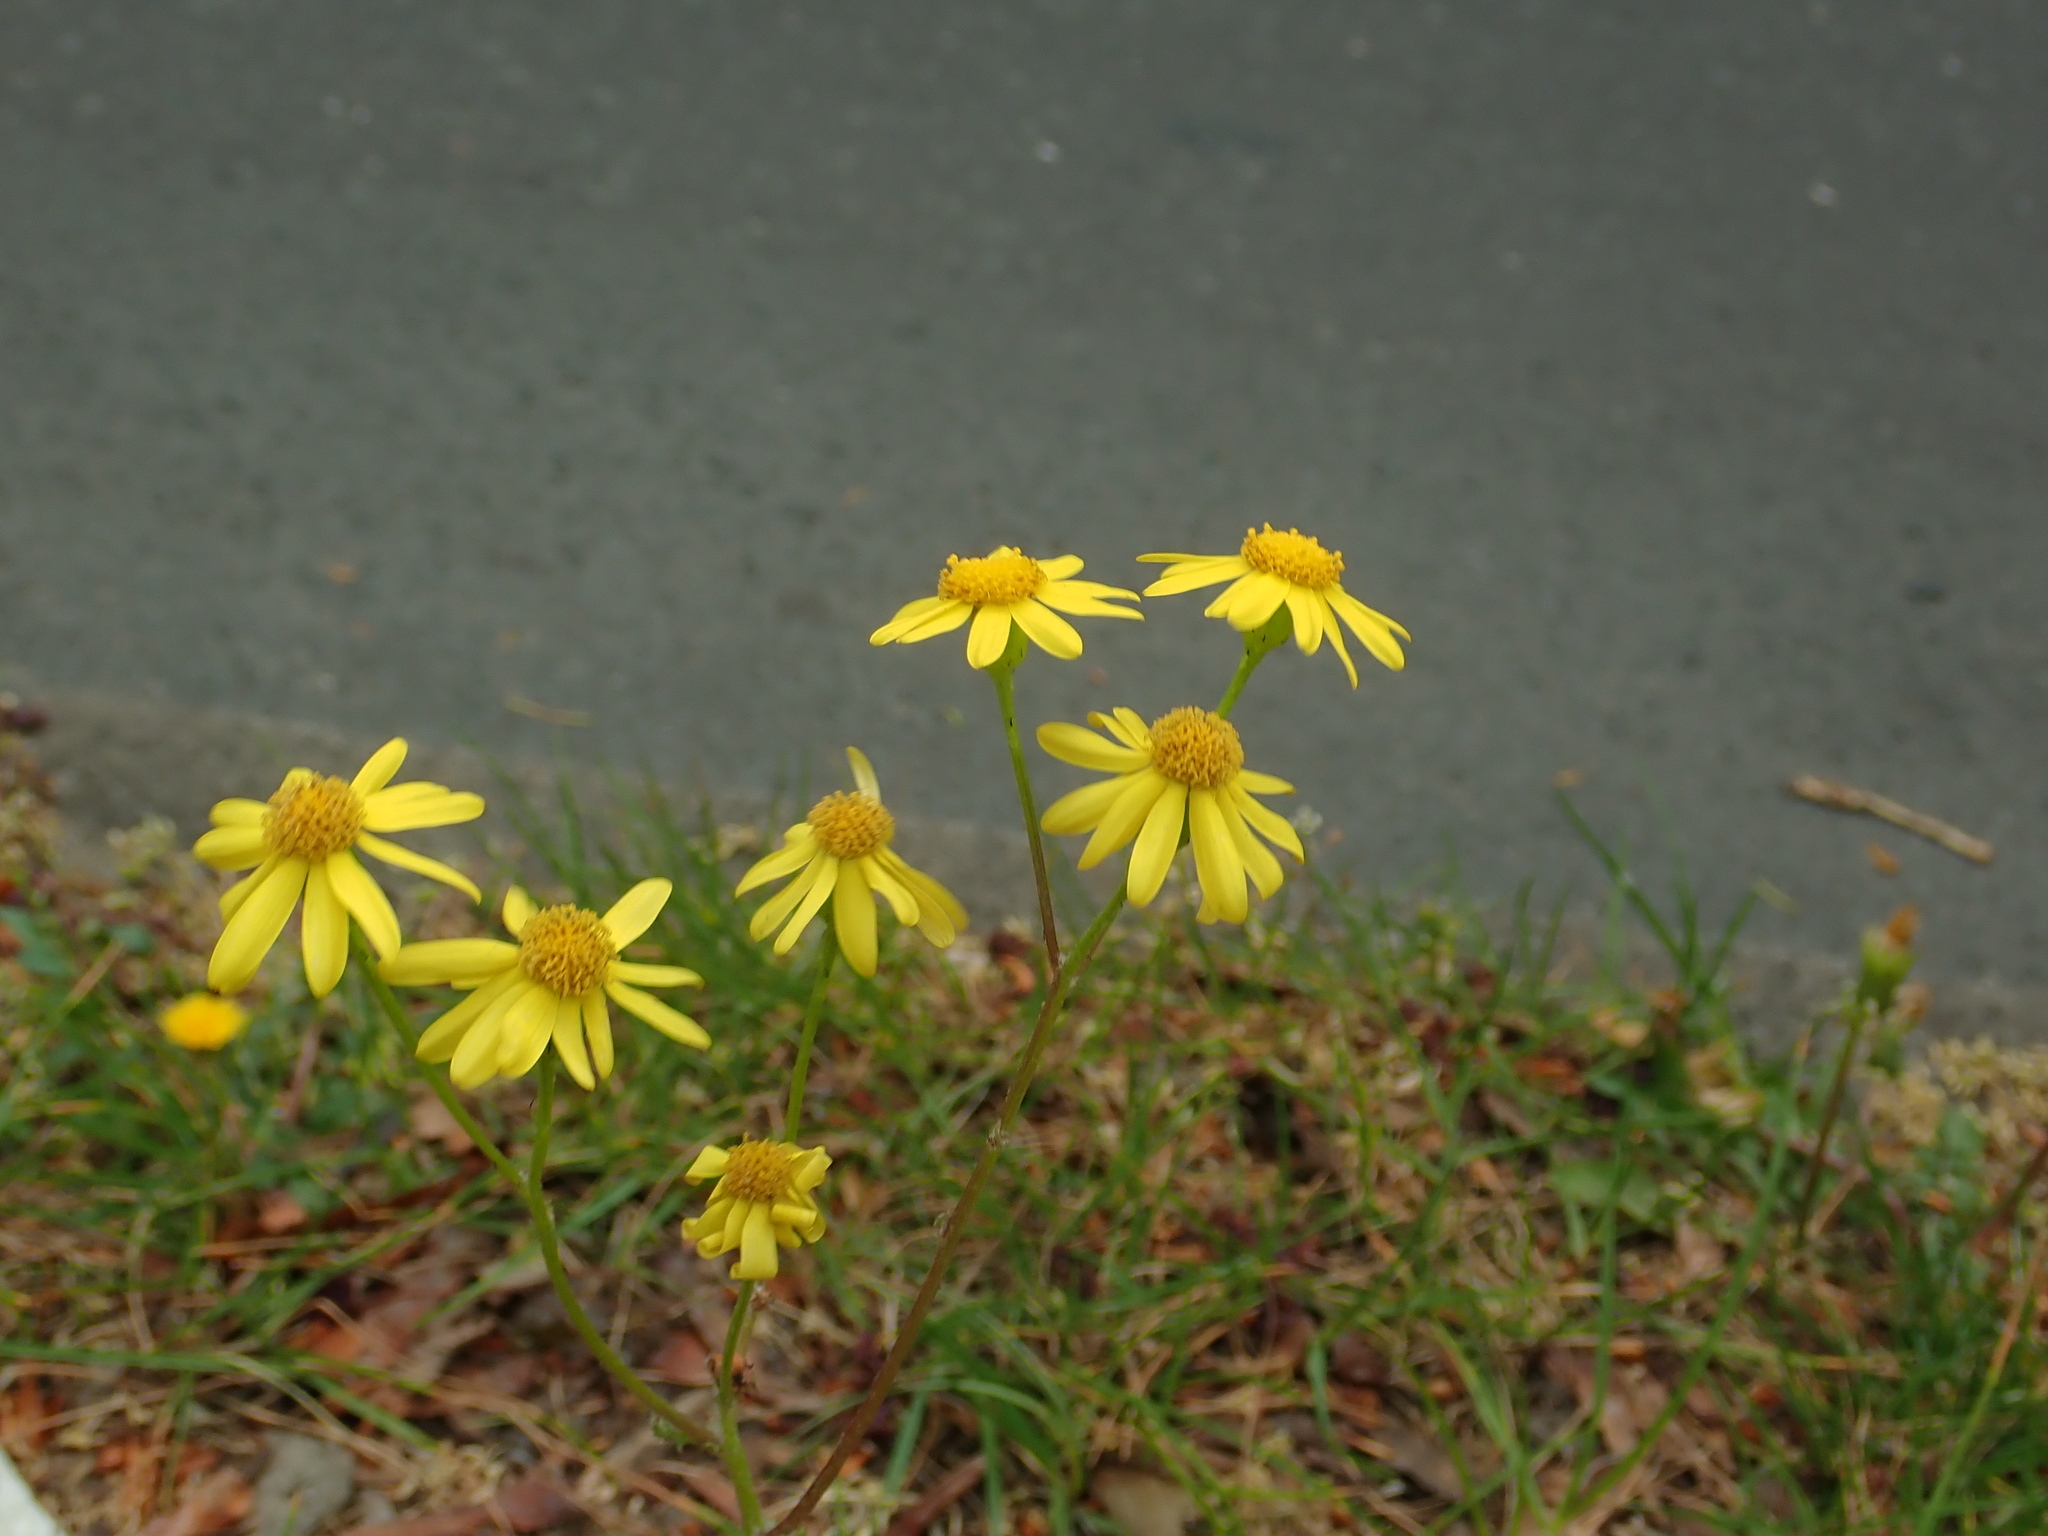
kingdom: Plantae
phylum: Tracheophyta
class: Magnoliopsida
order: Asterales
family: Asteraceae
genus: Senecio
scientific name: Senecio vernalis
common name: Eastern groundsel
